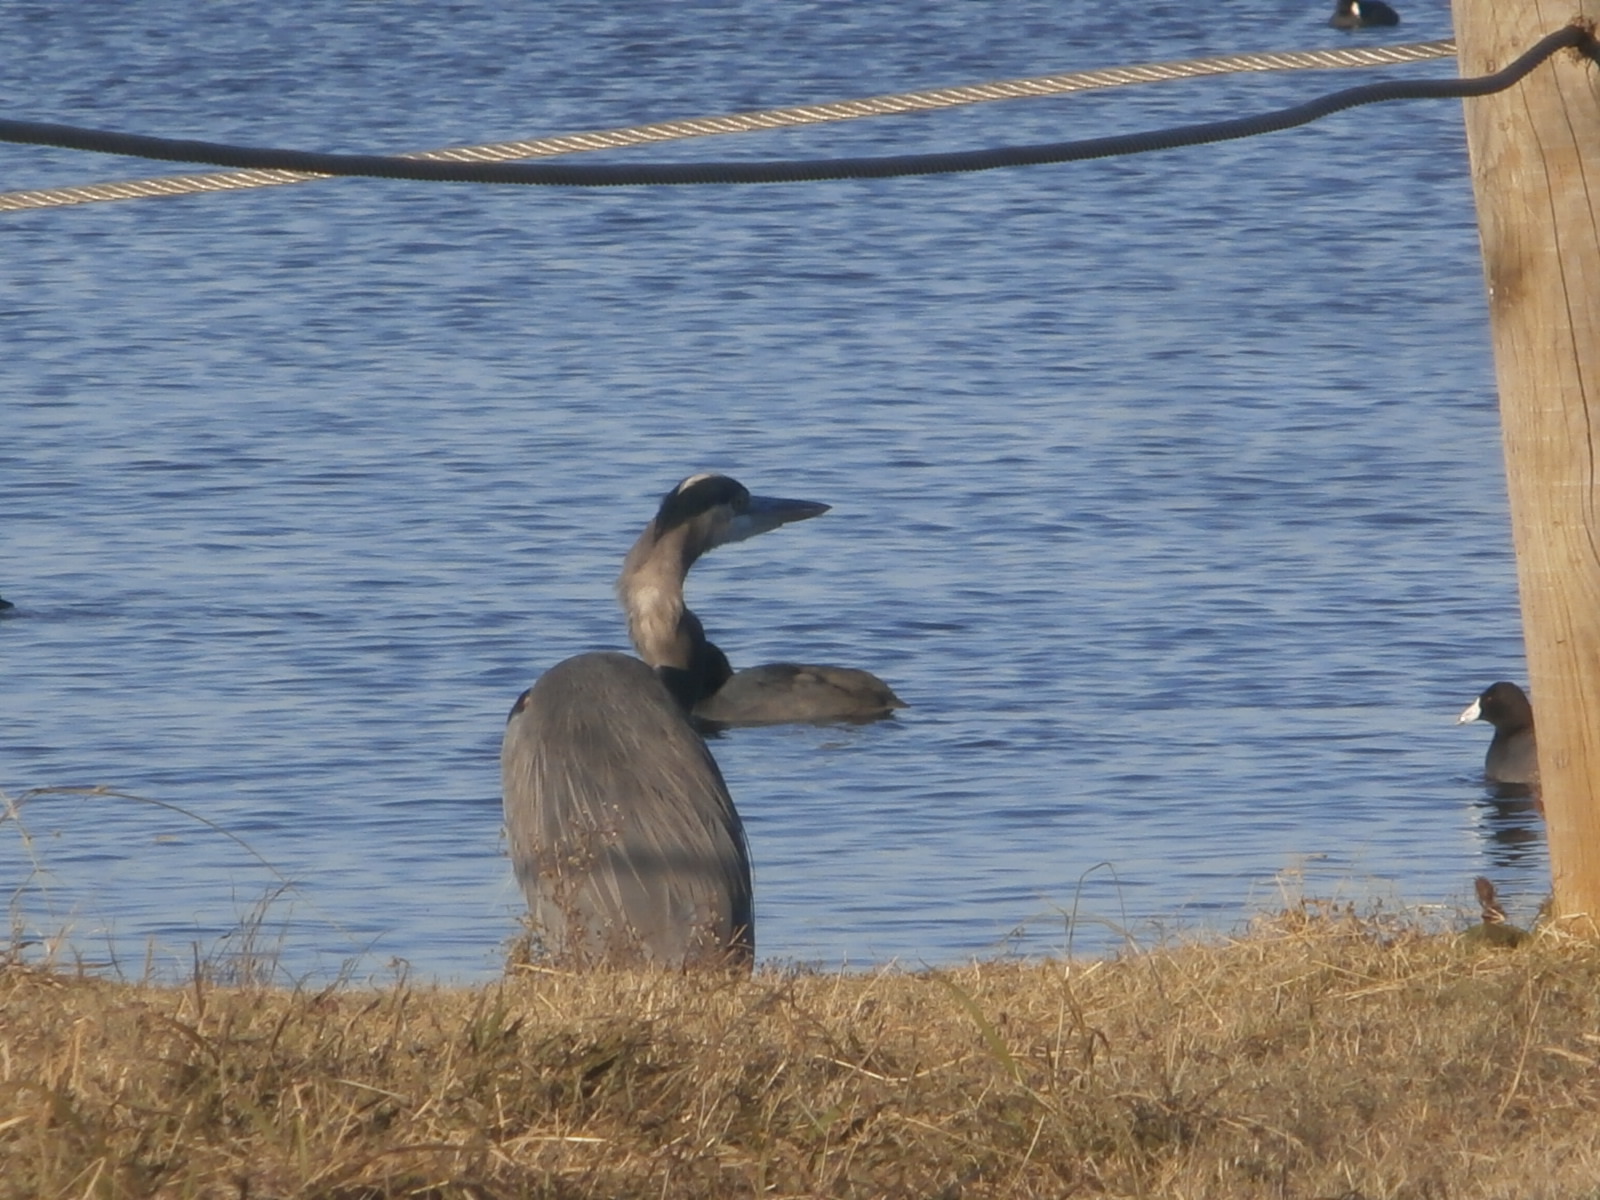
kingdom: Animalia
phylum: Chordata
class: Aves
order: Pelecaniformes
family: Ardeidae
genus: Ardea
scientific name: Ardea herodias
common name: Great blue heron
